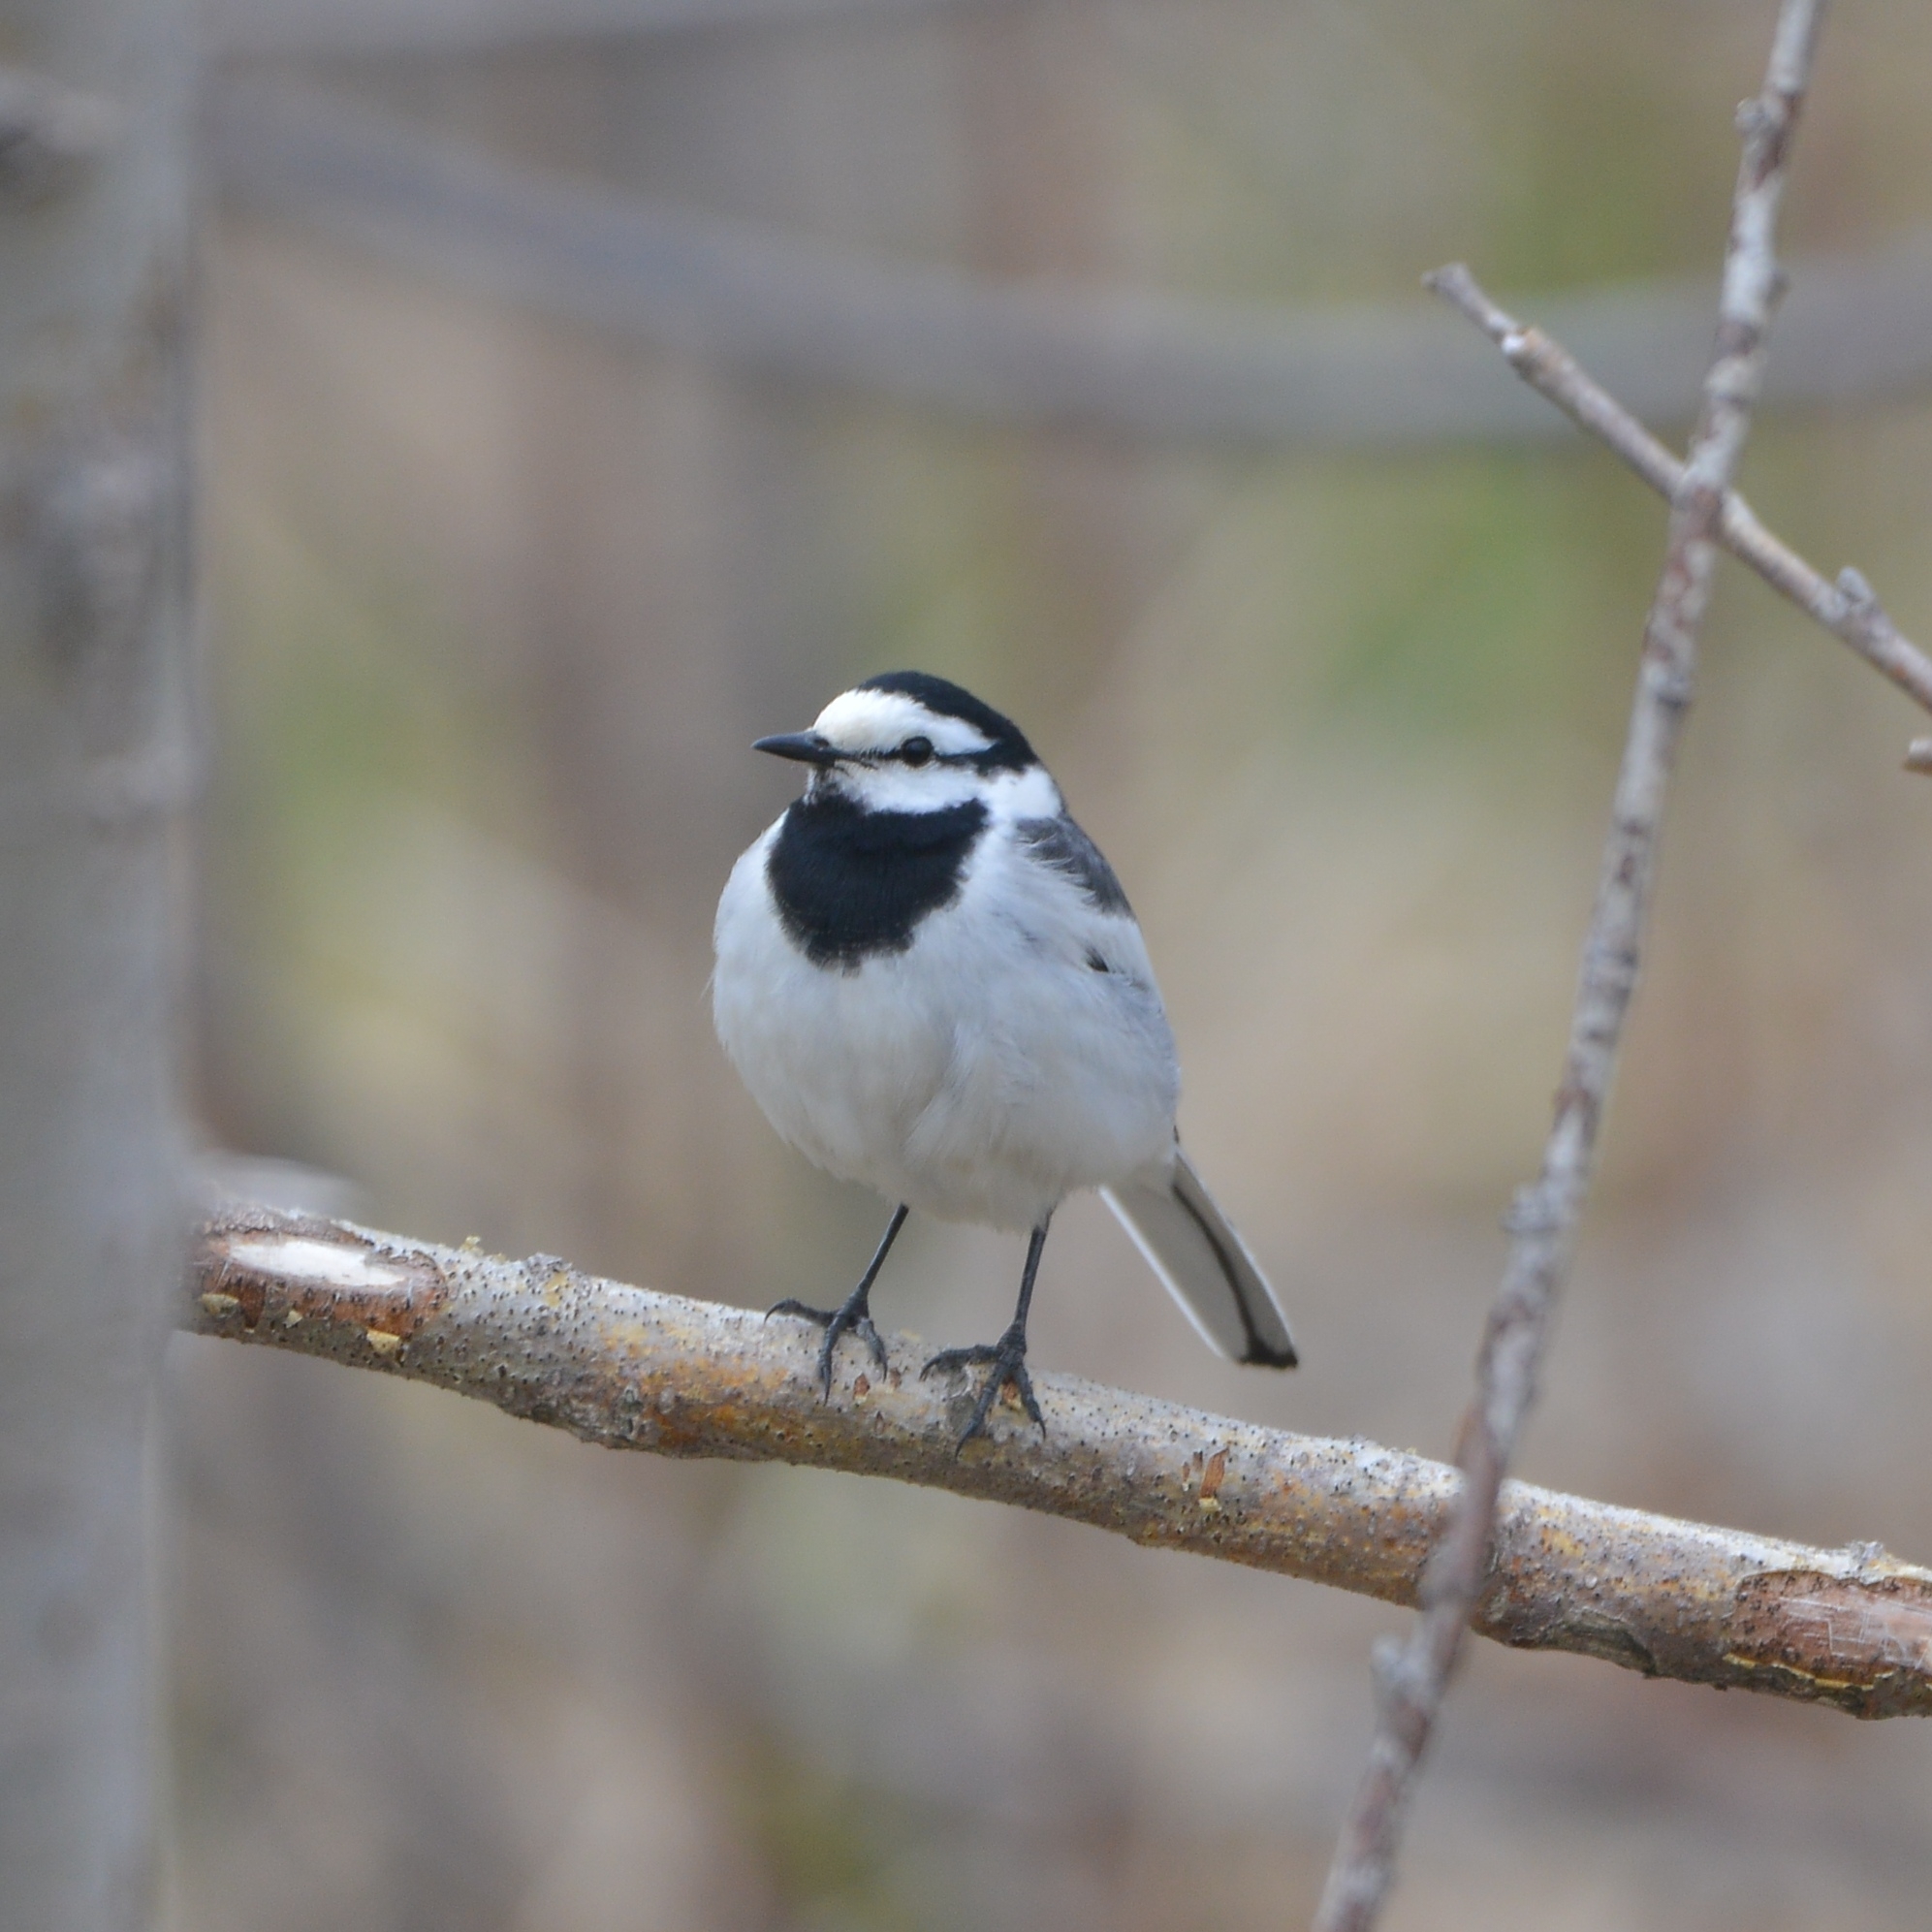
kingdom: Animalia
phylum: Chordata
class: Aves
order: Passeriformes
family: Motacillidae
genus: Motacilla
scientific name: Motacilla alba
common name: White wagtail
